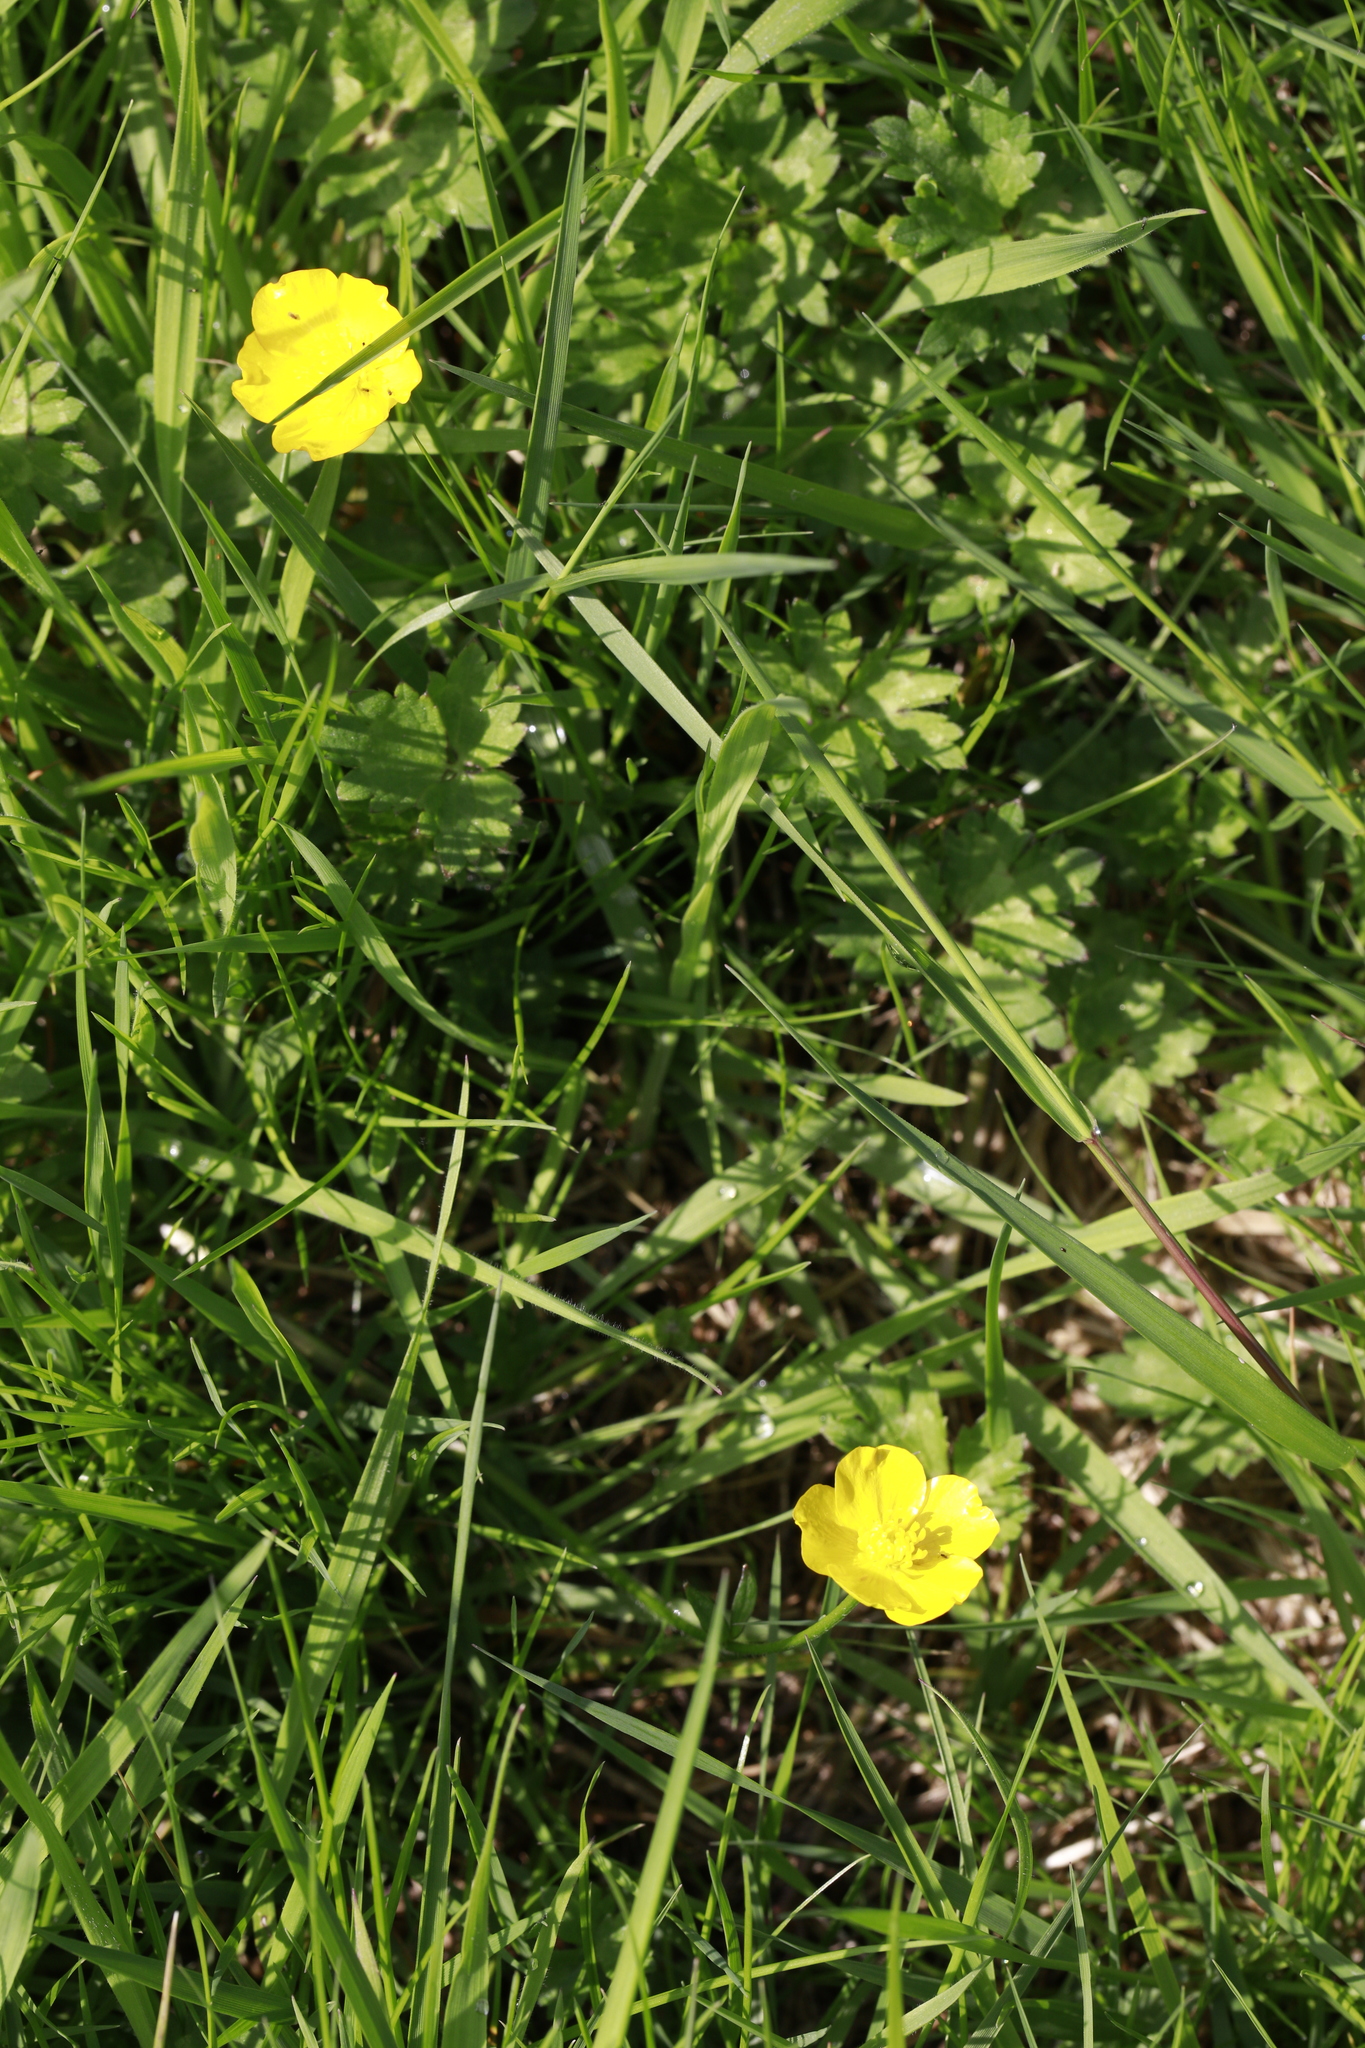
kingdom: Plantae
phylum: Tracheophyta
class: Magnoliopsida
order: Ranunculales
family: Ranunculaceae
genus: Ranunculus
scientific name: Ranunculus repens
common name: Creeping buttercup
